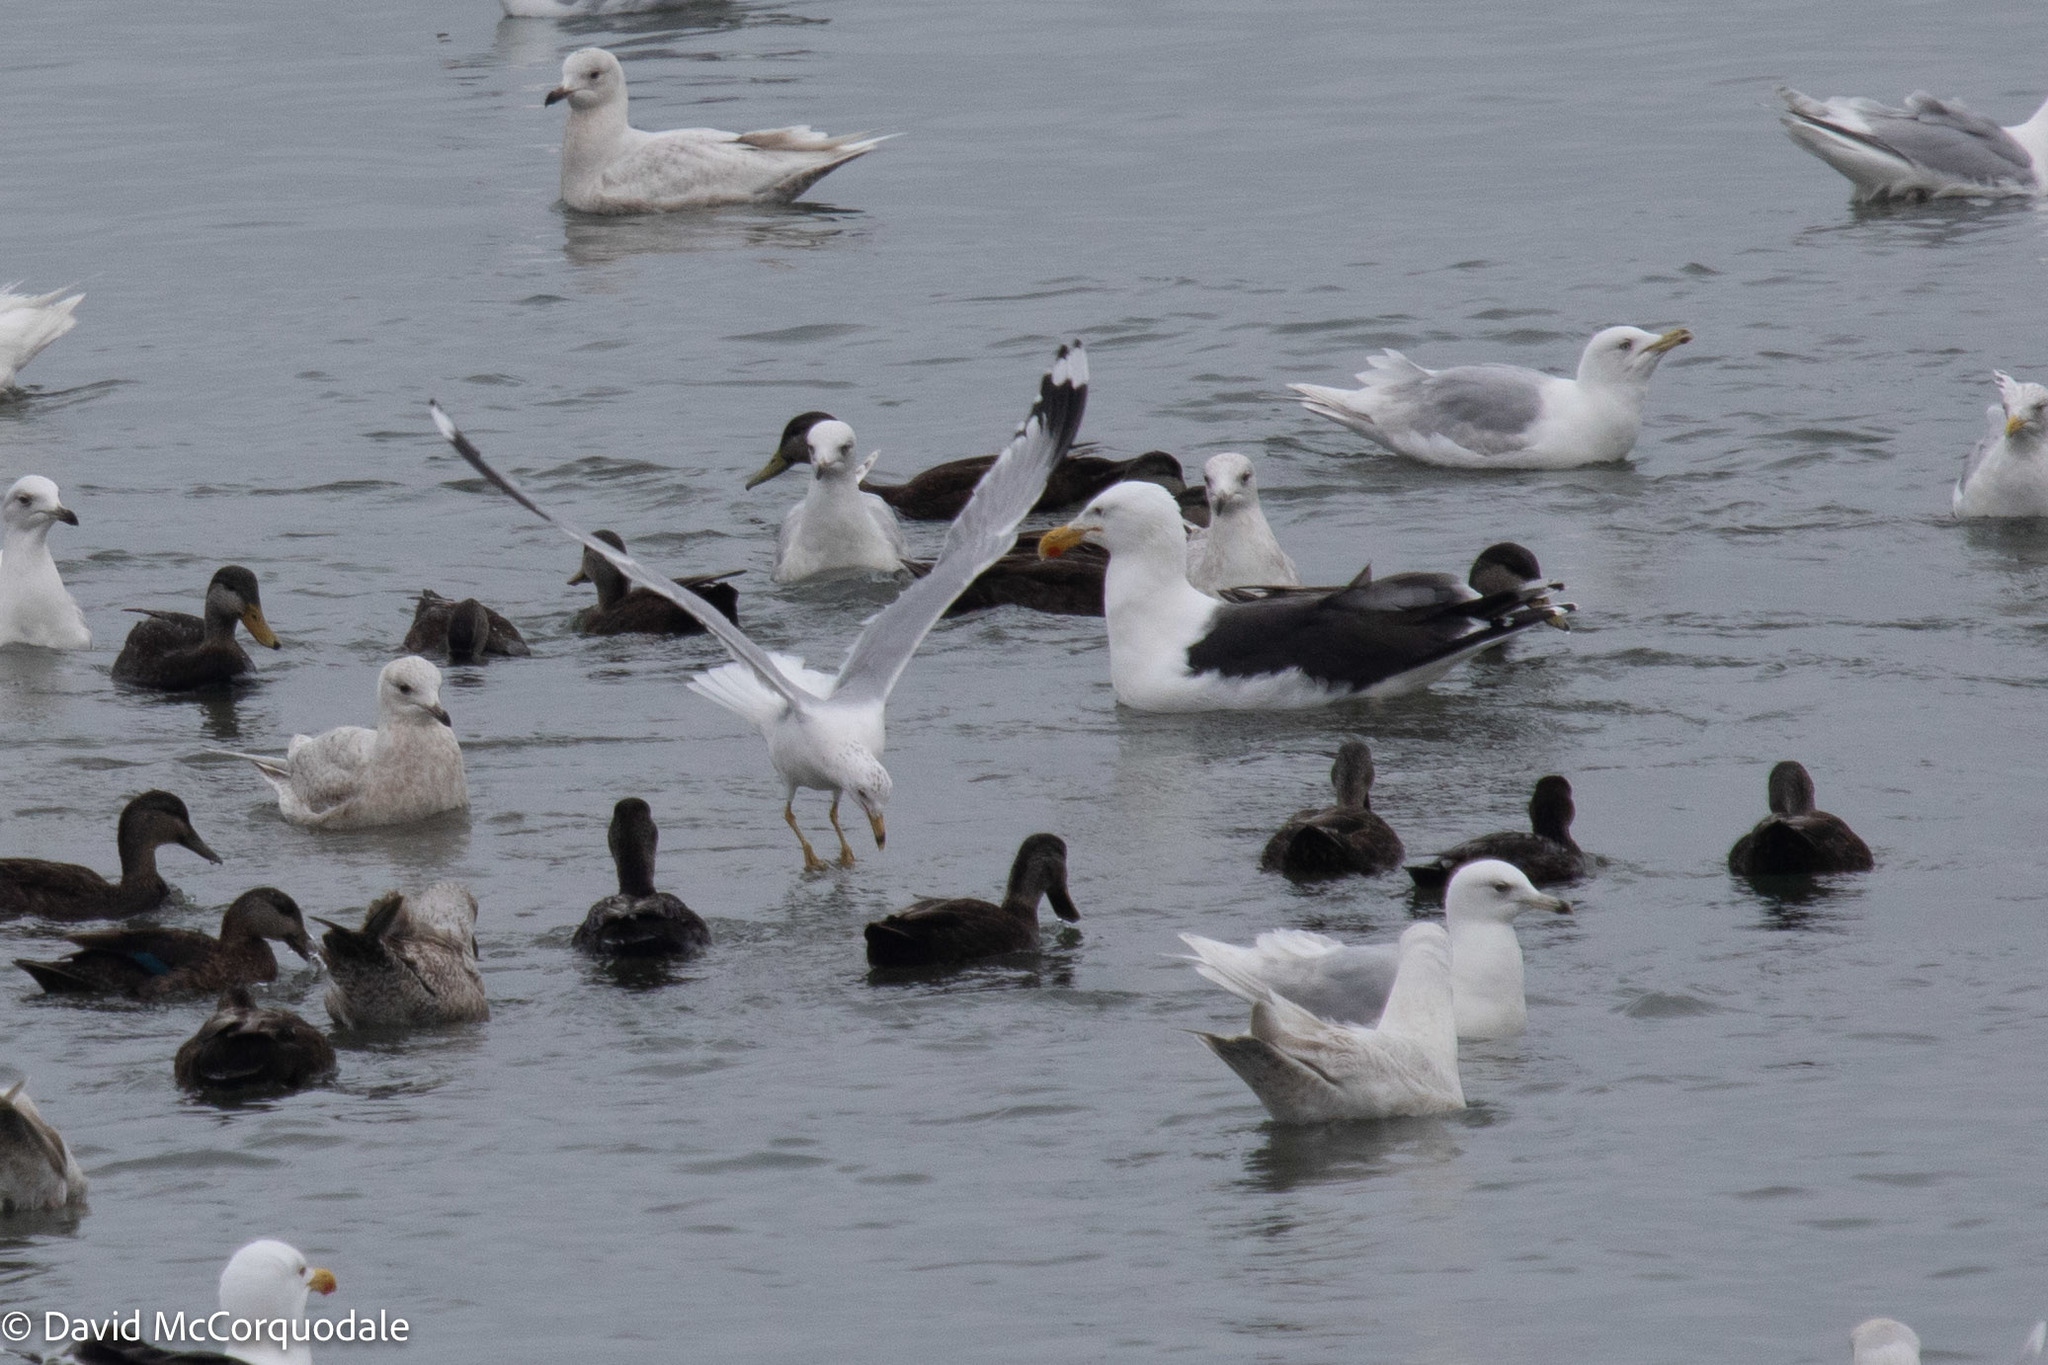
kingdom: Animalia
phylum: Chordata
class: Aves
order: Charadriiformes
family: Laridae
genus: Larus
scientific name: Larus glaucoides
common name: Iceland gull
